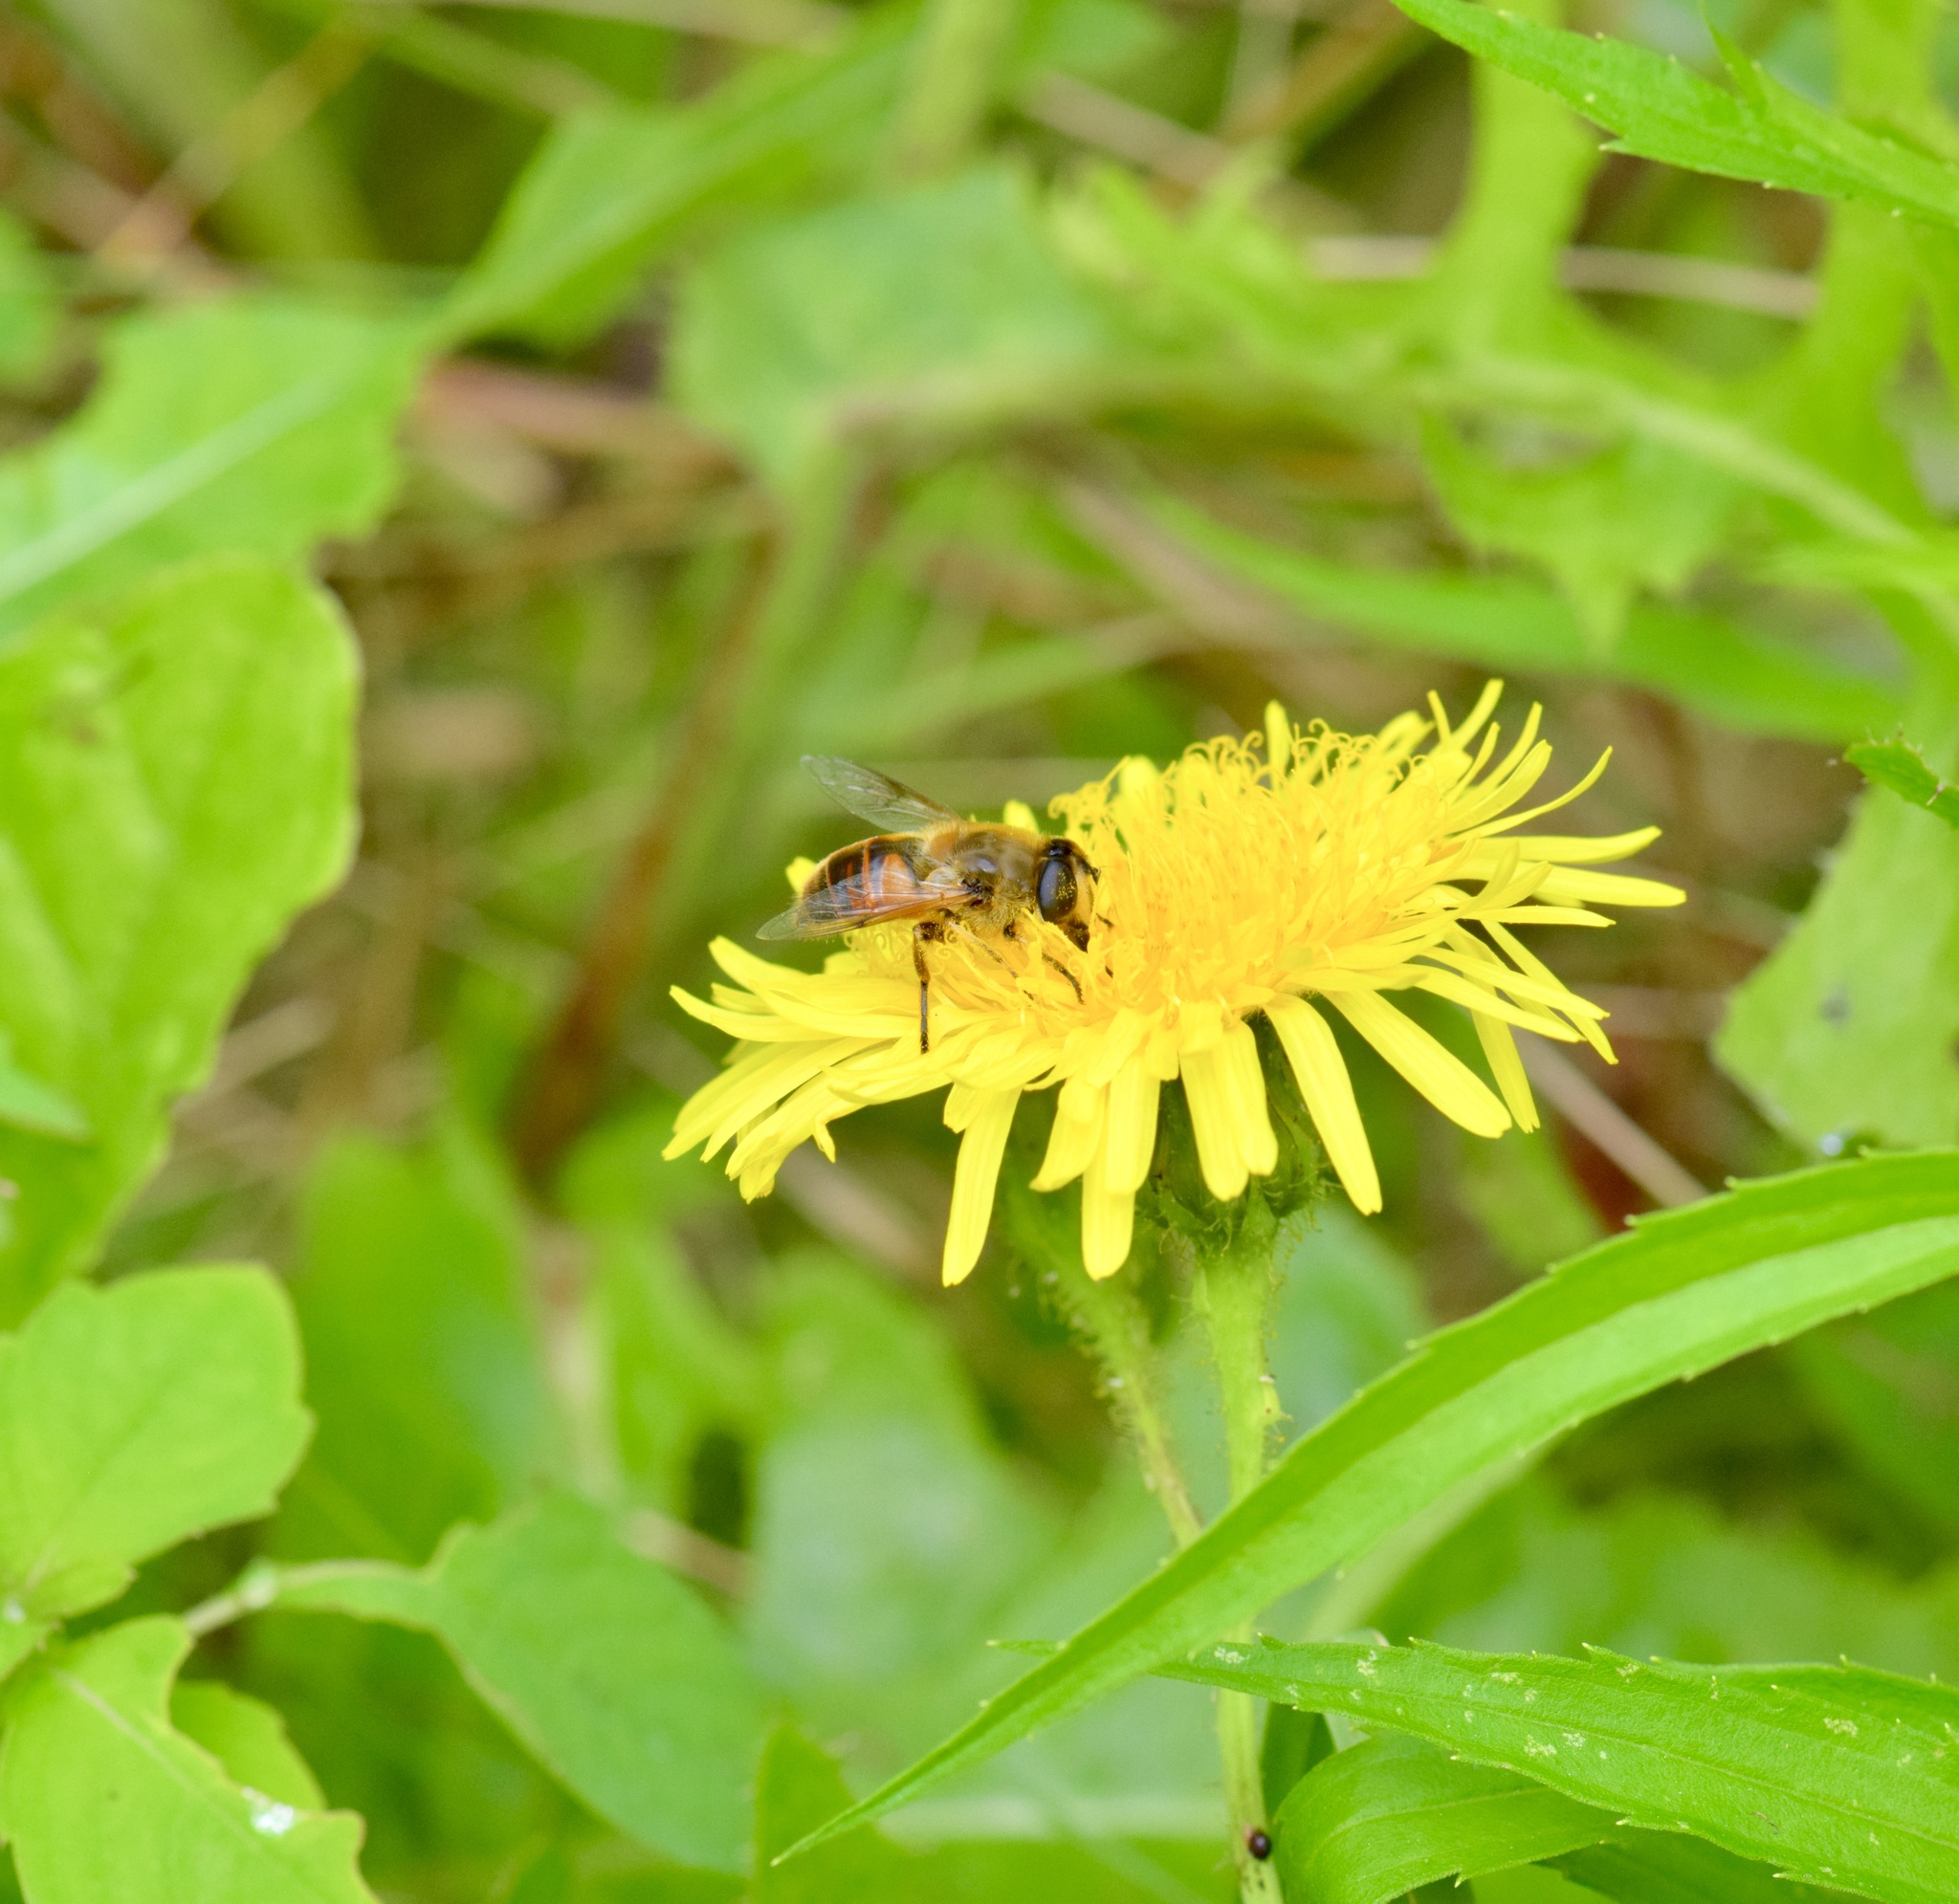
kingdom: Animalia
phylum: Arthropoda
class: Insecta
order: Diptera
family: Syrphidae
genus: Eristalis
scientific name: Eristalis tenax
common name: Drone fly
